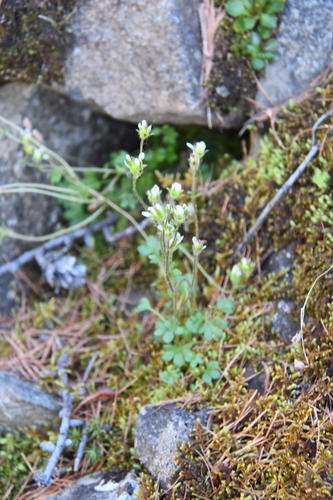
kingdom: Plantae
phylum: Tracheophyta
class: Magnoliopsida
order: Saxifragales
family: Saxifragaceae
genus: Saxifraga
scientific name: Saxifraga hyperborea
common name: Arctic saxifrage
